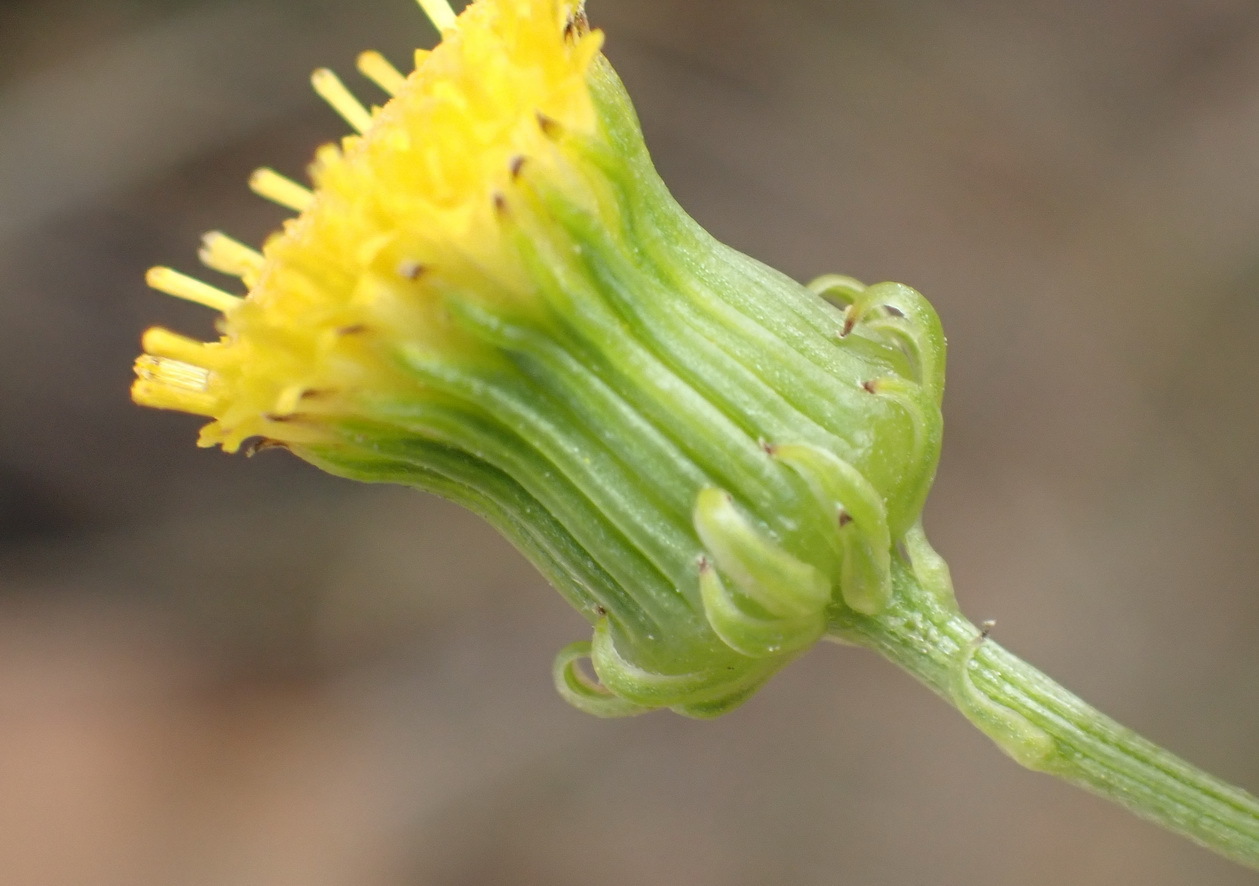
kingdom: Plantae
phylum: Tracheophyta
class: Magnoliopsida
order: Asterales
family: Asteraceae
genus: Senecio
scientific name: Senecio chrysocoma
